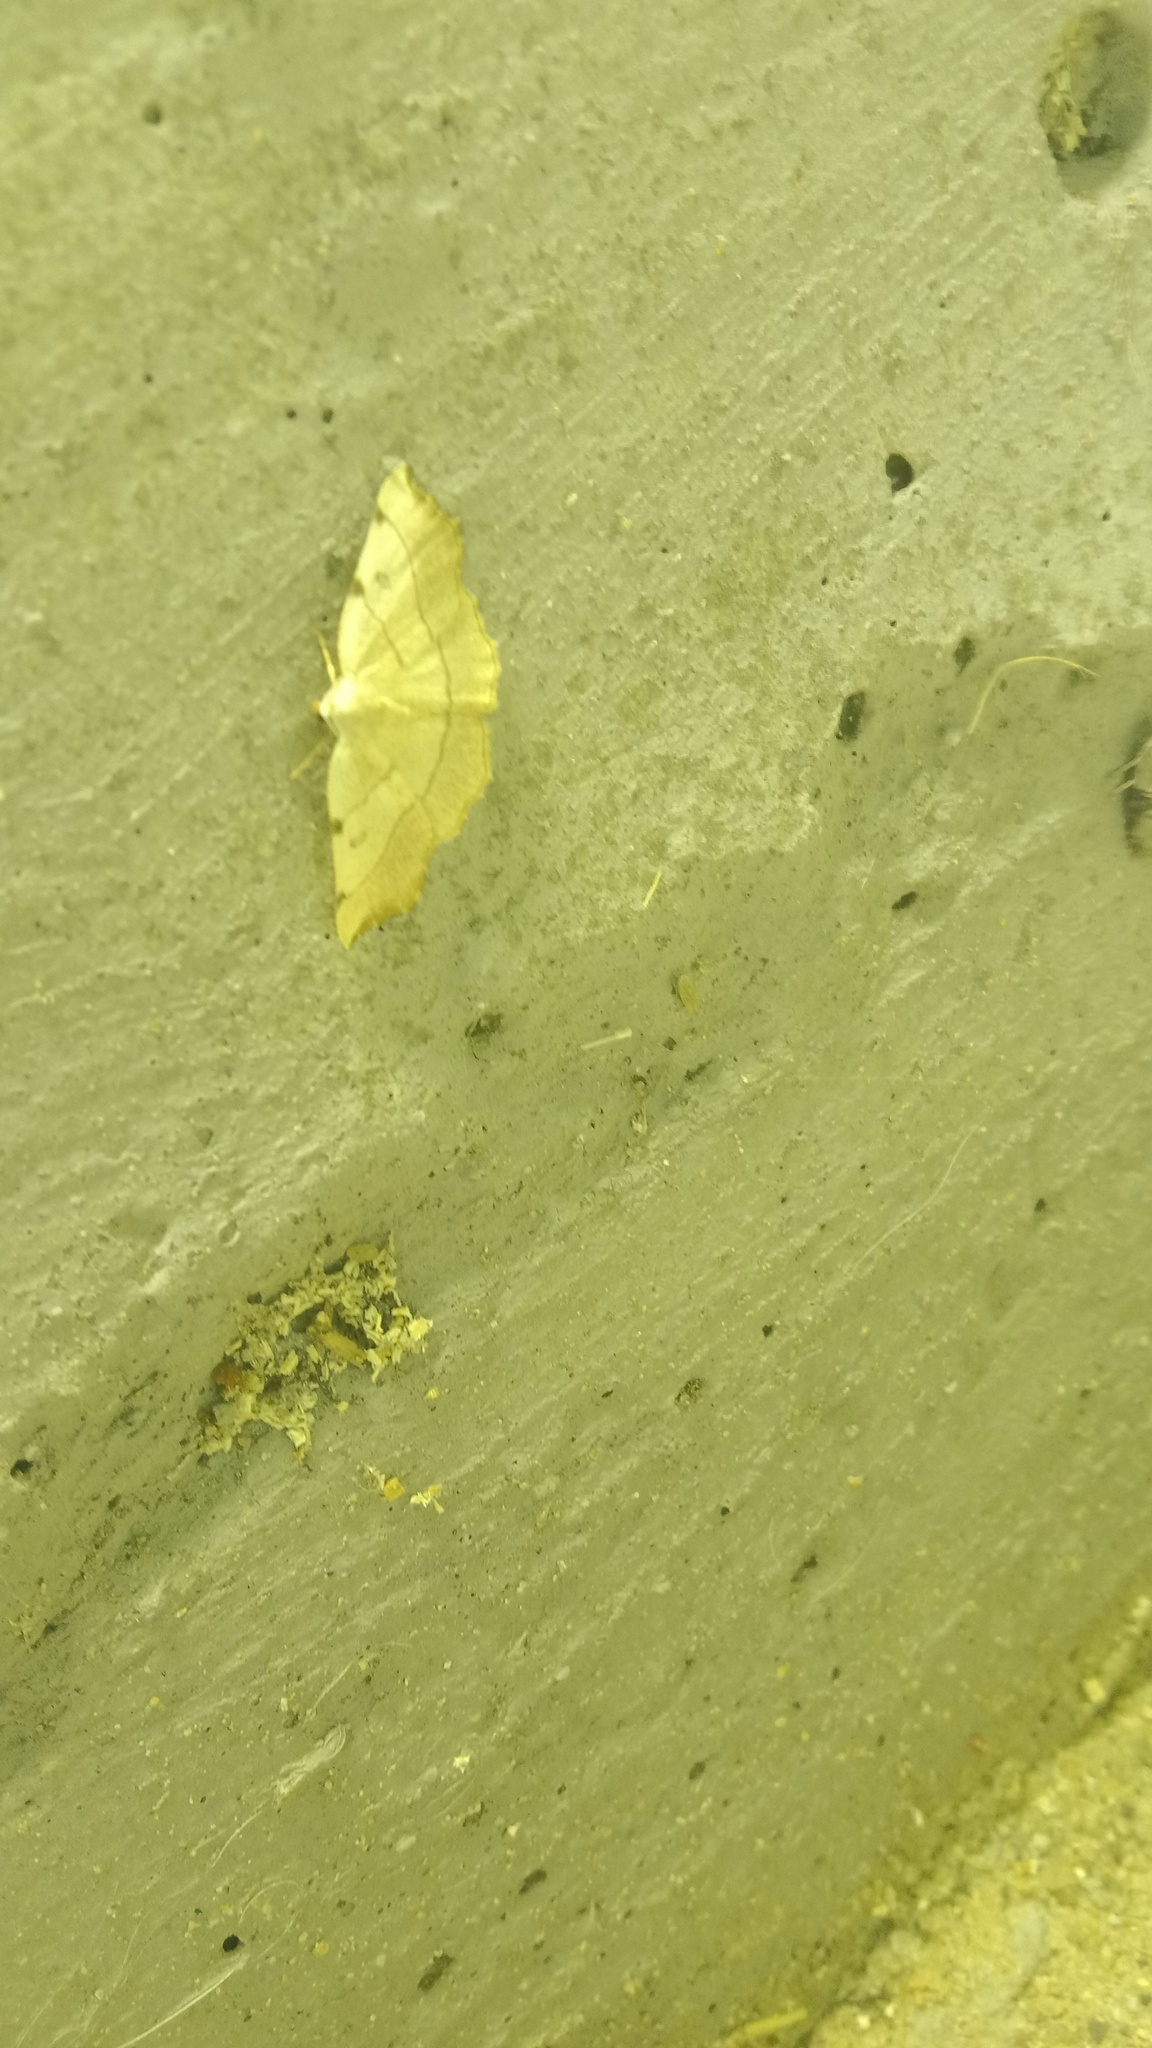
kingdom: Animalia
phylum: Arthropoda
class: Insecta
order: Lepidoptera
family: Geometridae
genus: Eilicrinia
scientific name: Eilicrinia trinotata
